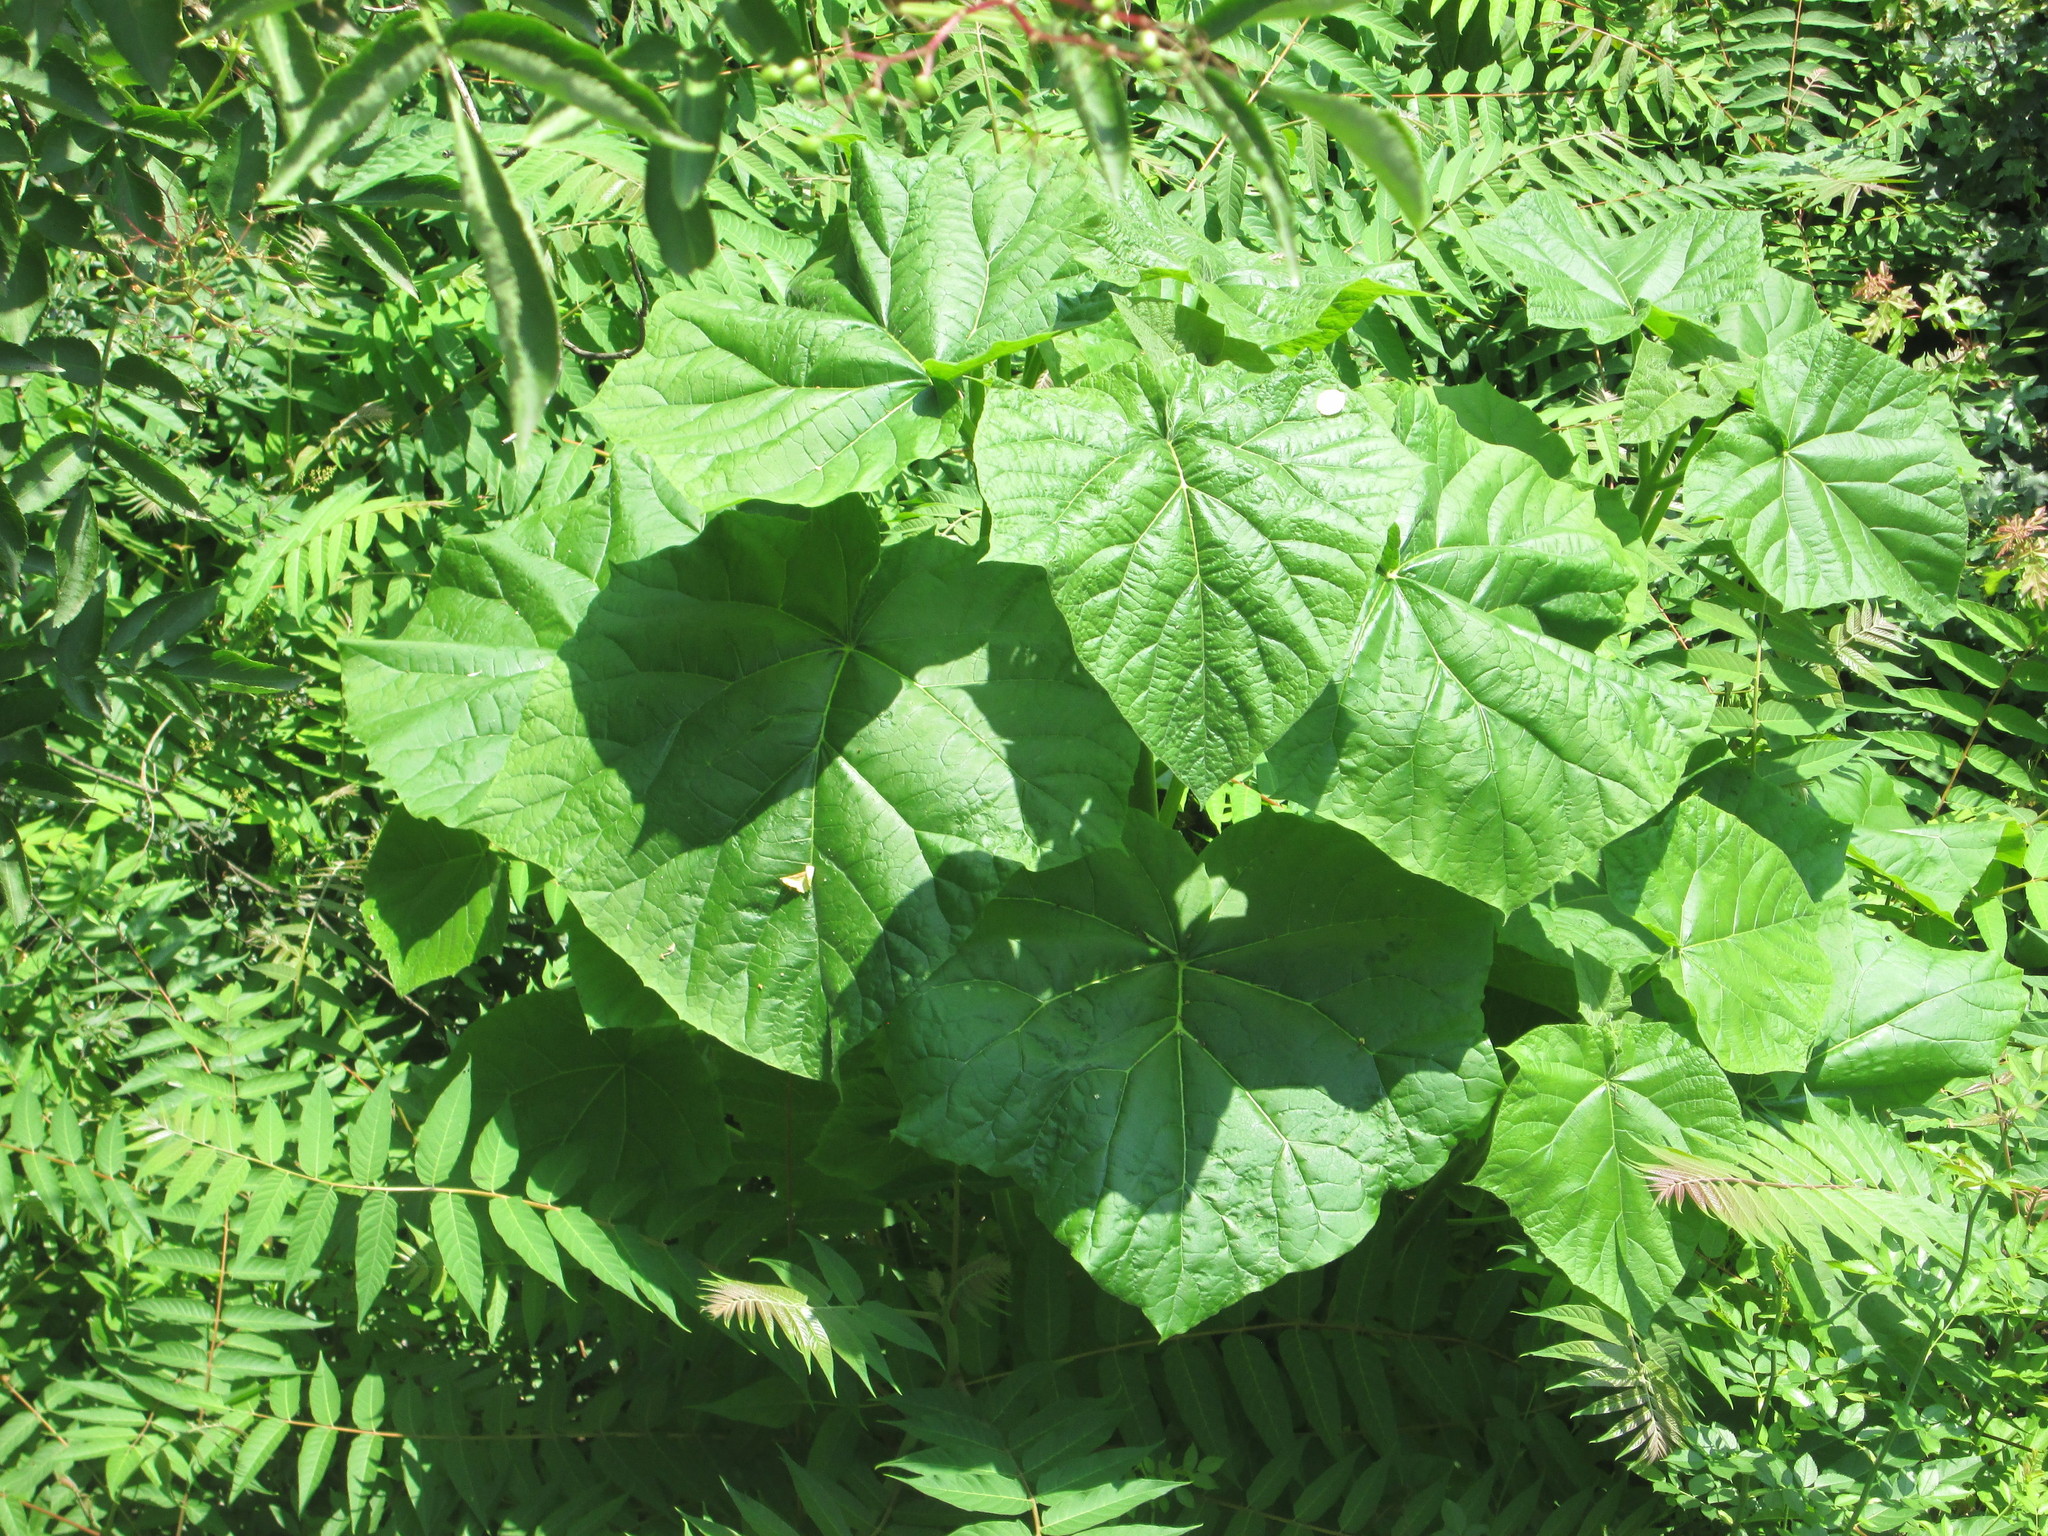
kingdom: Plantae
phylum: Tracheophyta
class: Magnoliopsida
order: Lamiales
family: Paulowniaceae
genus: Paulownia
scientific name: Paulownia tomentosa
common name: Foxglove-tree
